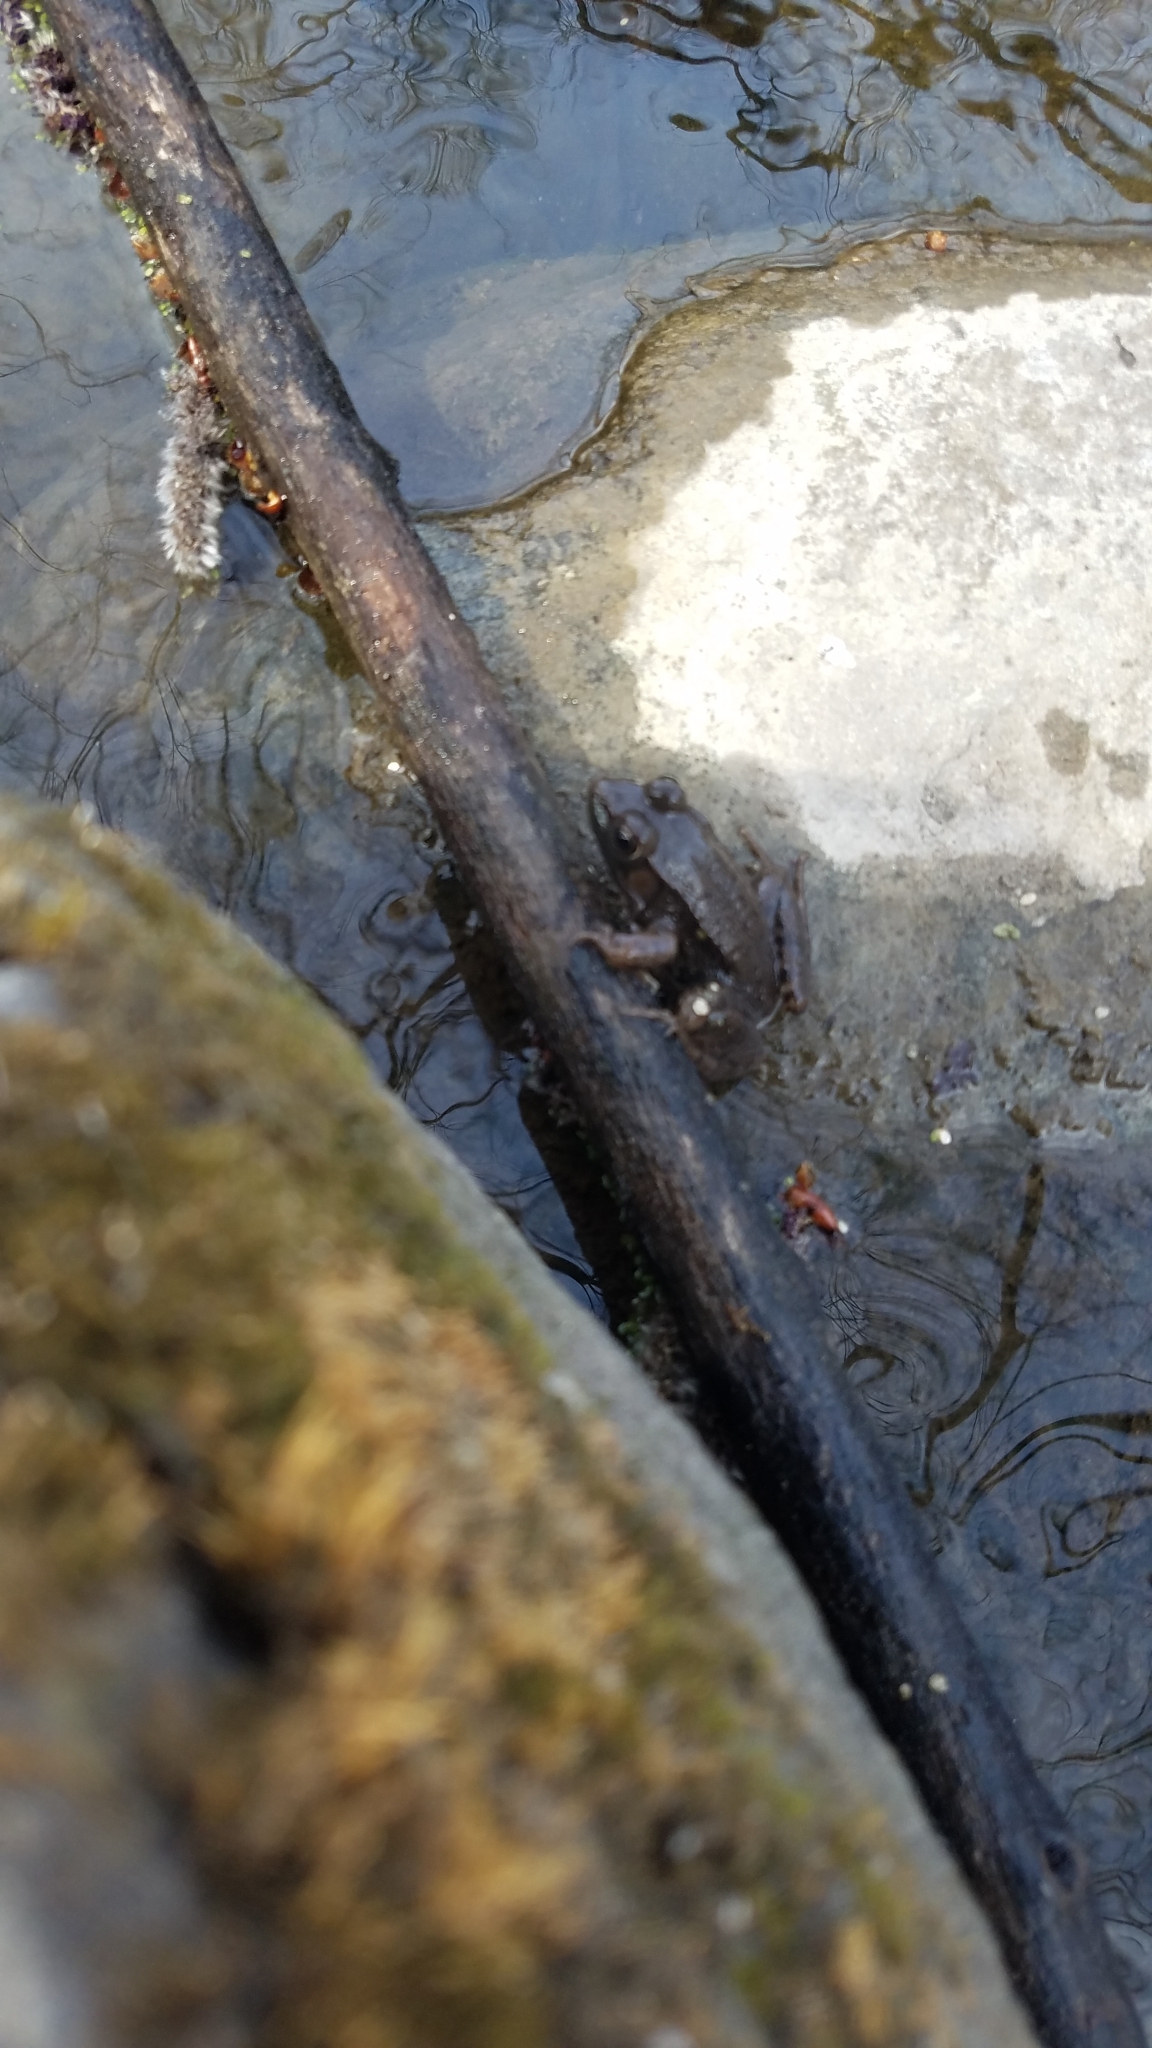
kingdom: Animalia
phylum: Chordata
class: Amphibia
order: Anura
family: Ranidae
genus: Lithobates
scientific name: Lithobates clamitans
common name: Green frog
